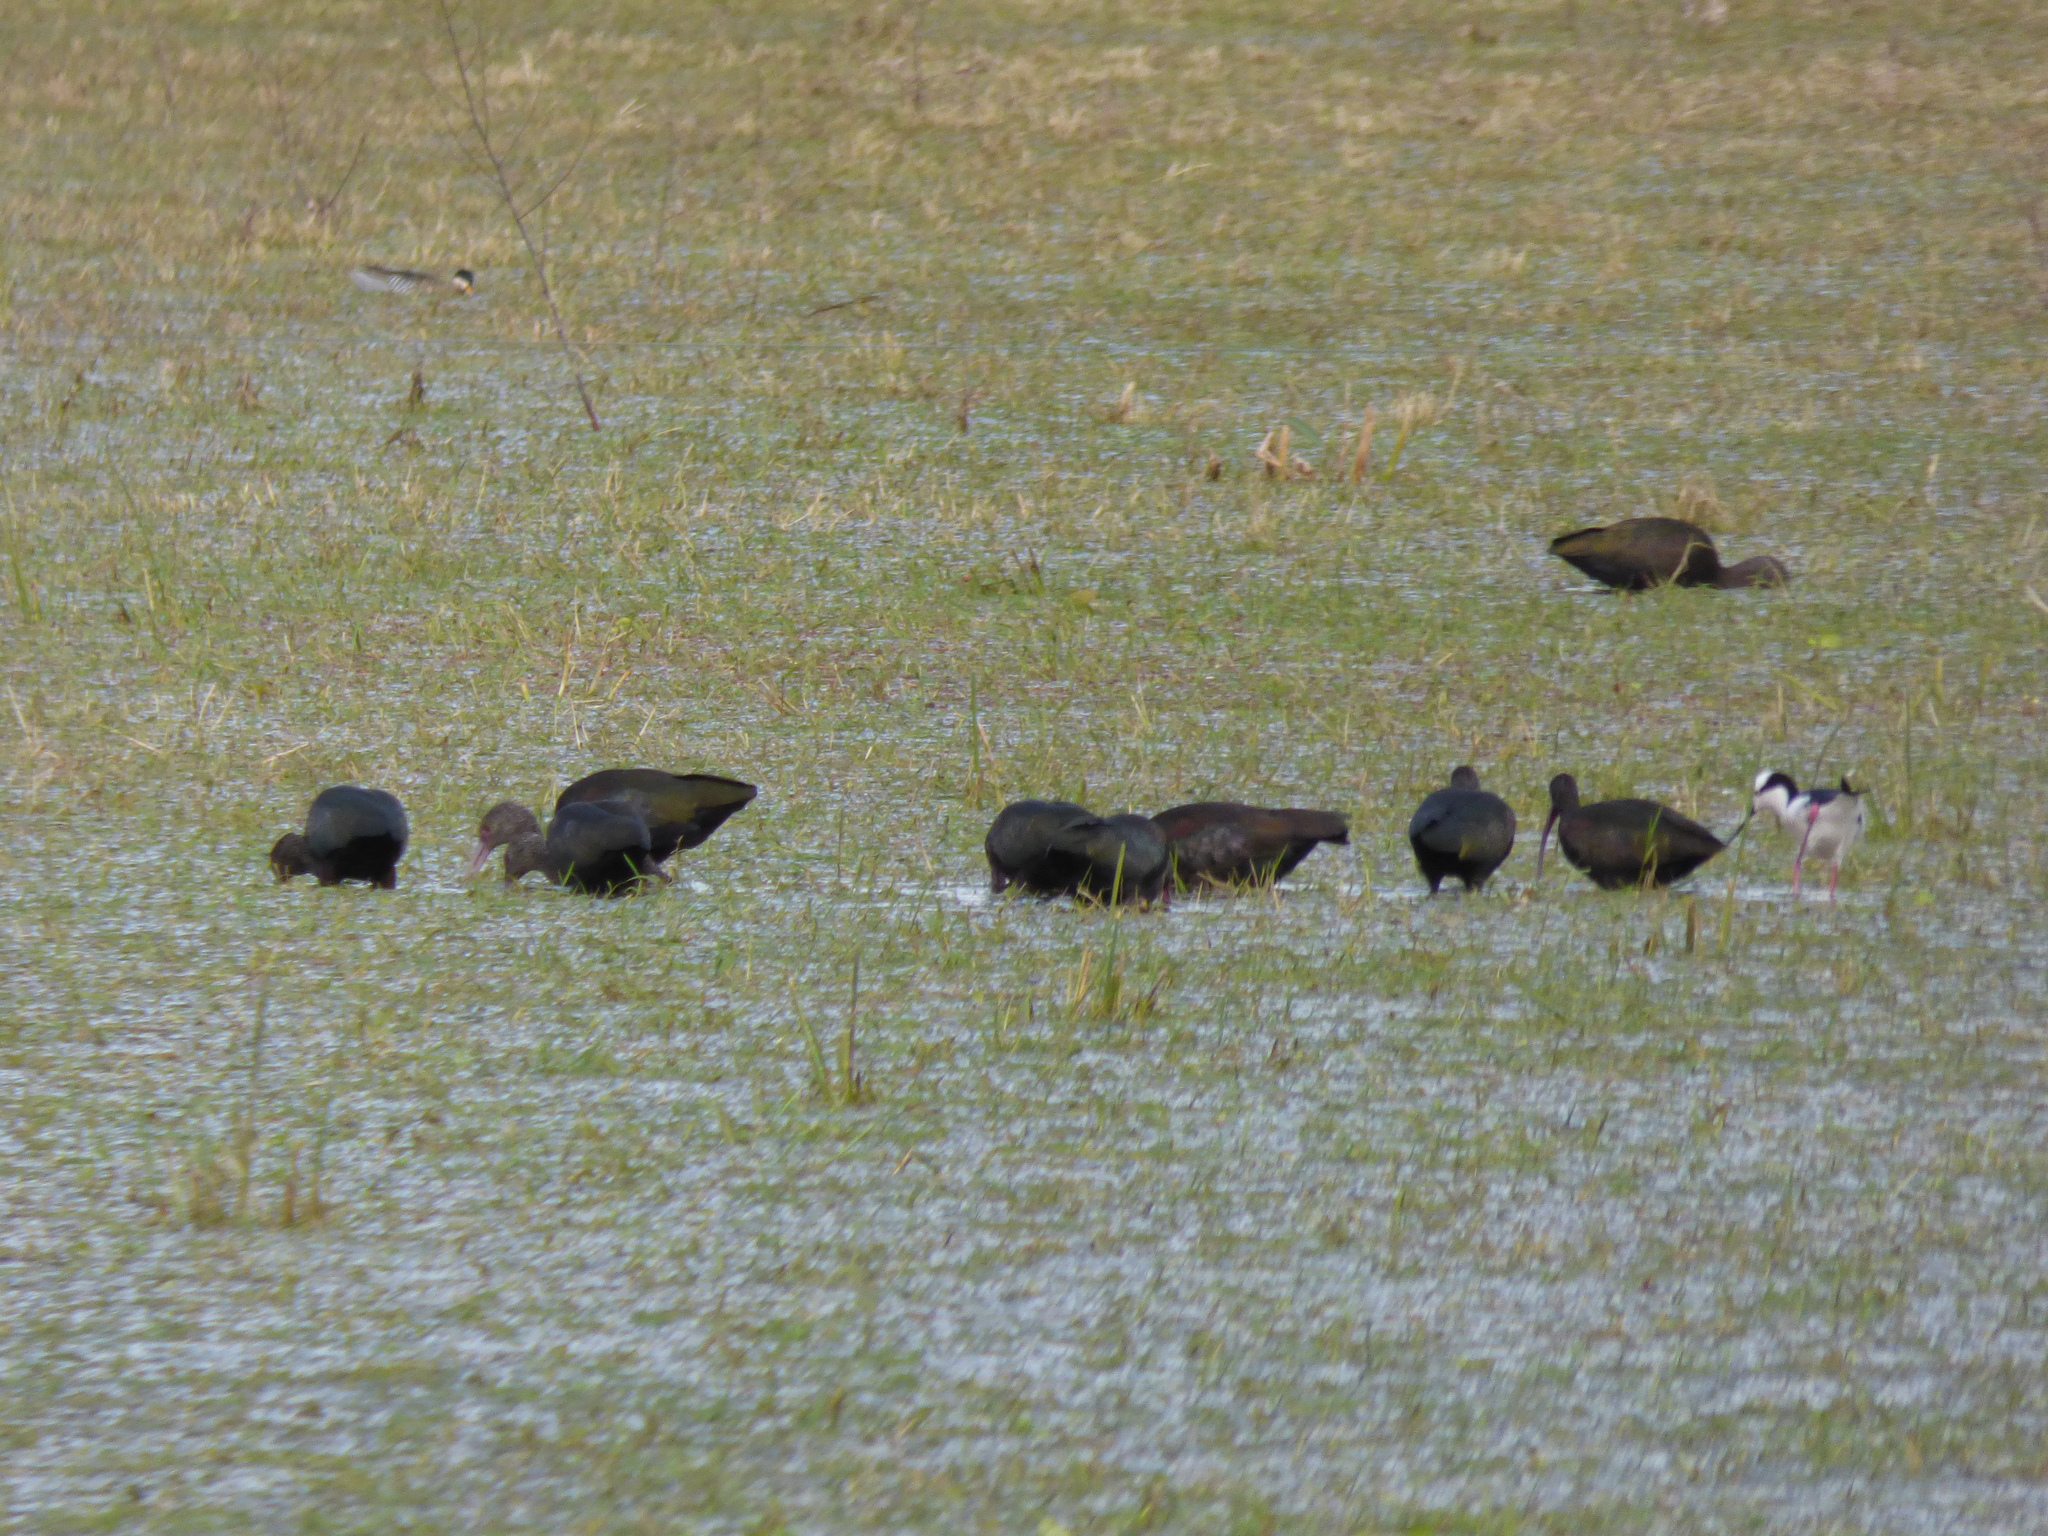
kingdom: Animalia
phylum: Chordata
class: Aves
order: Pelecaniformes
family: Threskiornithidae
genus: Plegadis
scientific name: Plegadis chihi
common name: White-faced ibis
